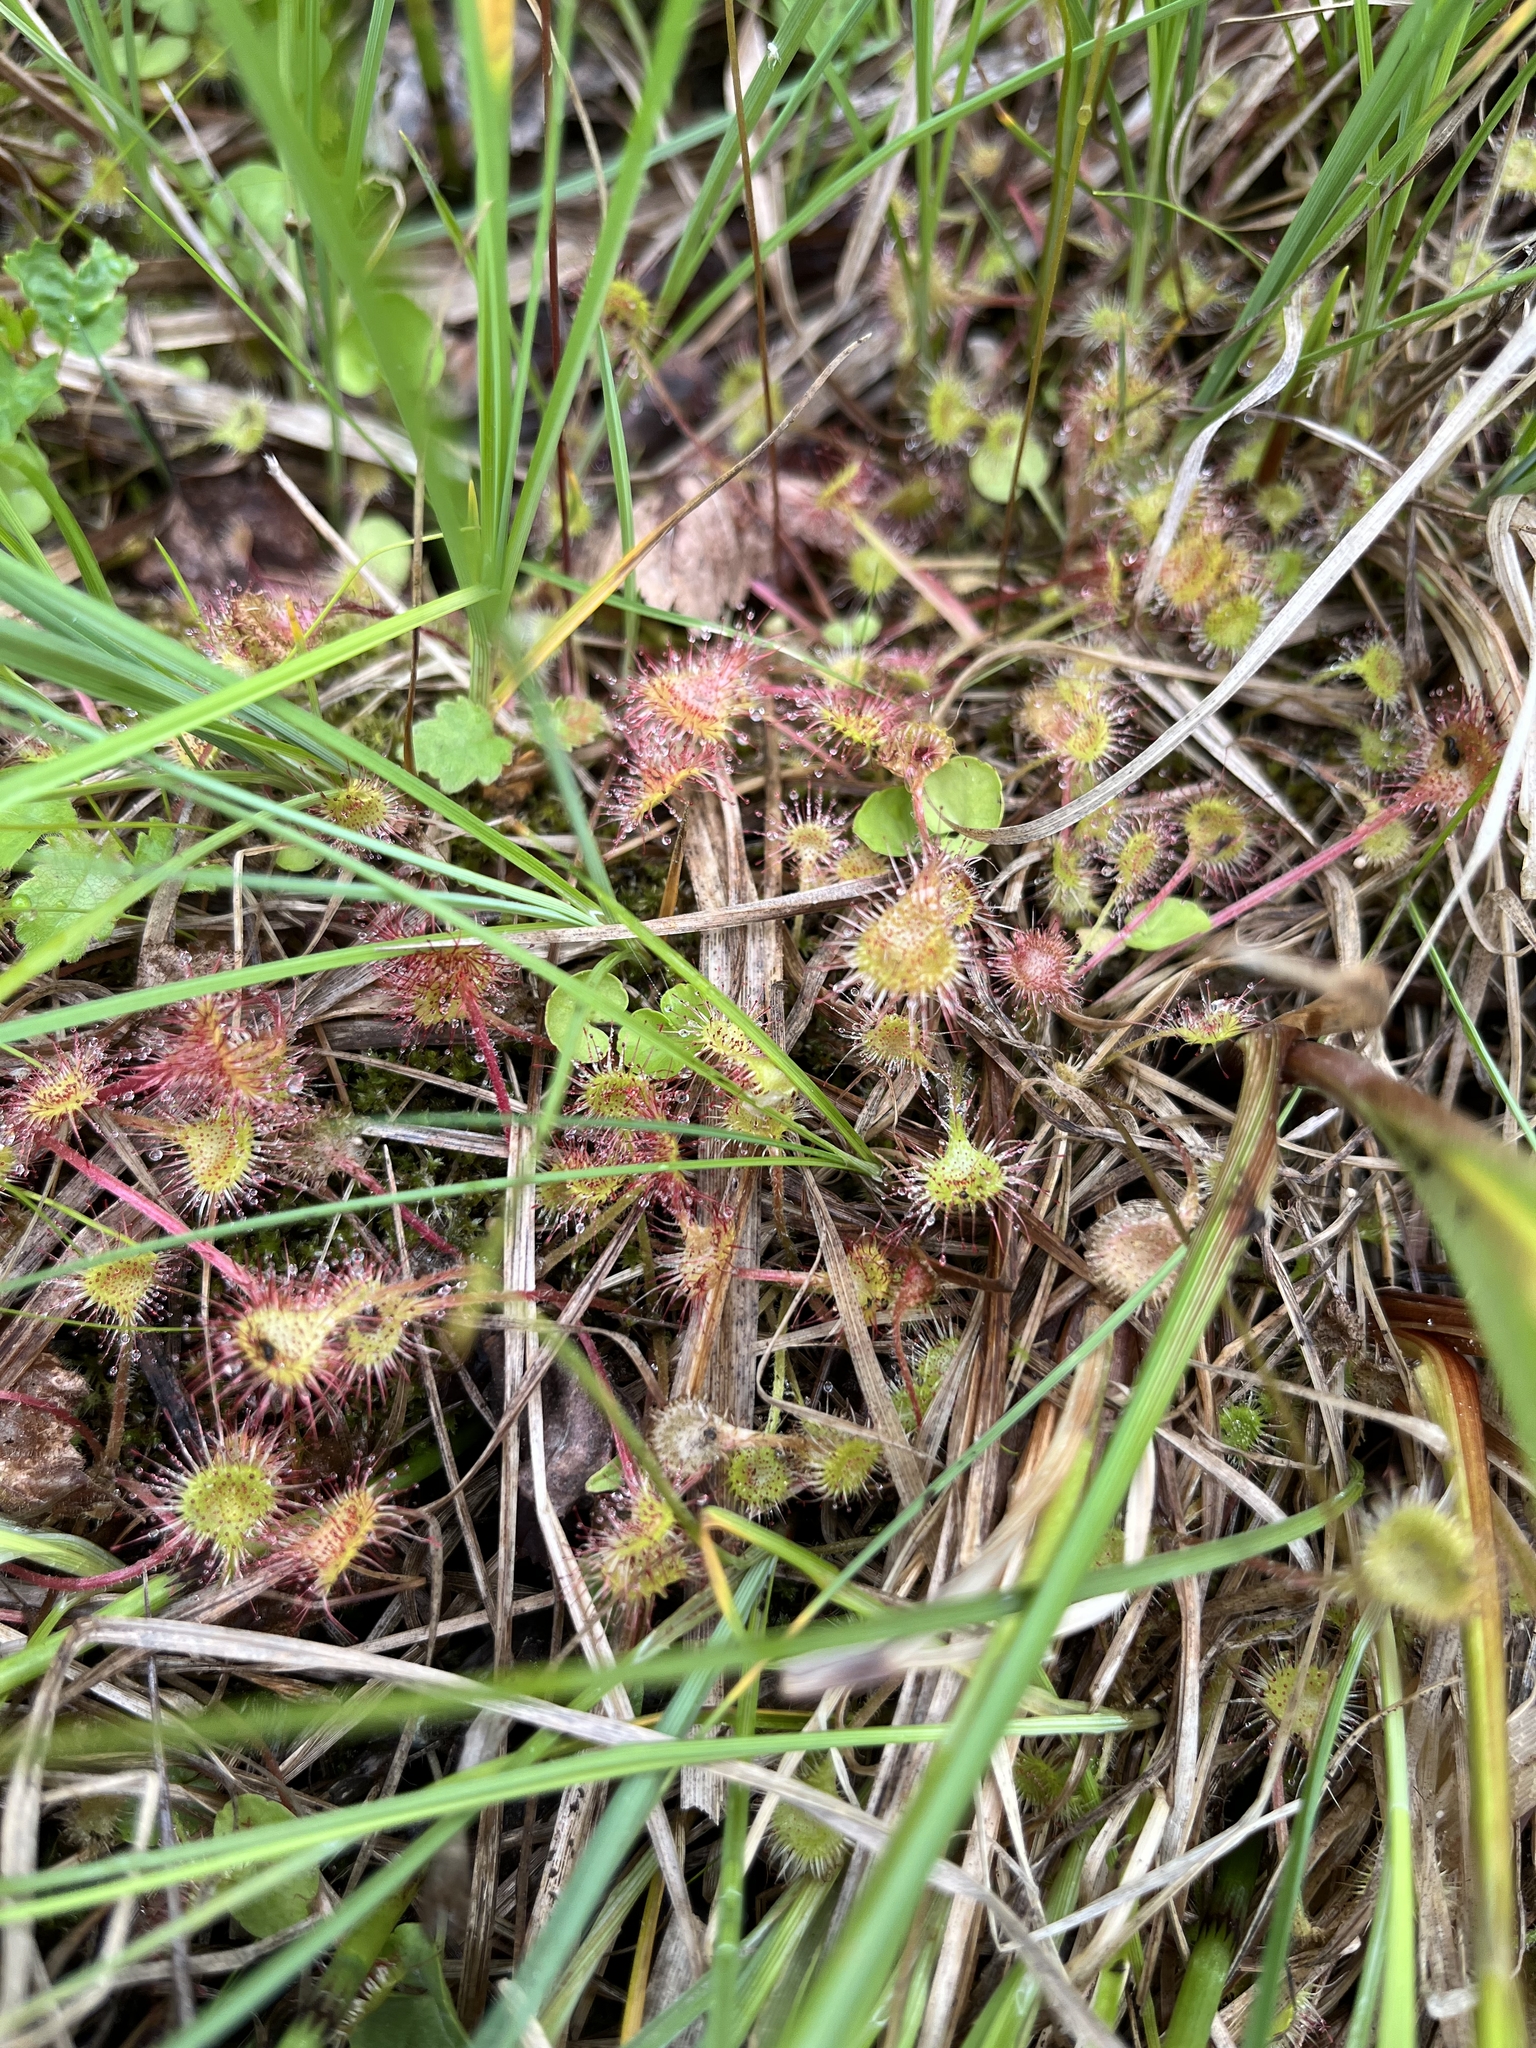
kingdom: Plantae
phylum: Tracheophyta
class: Magnoliopsida
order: Caryophyllales
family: Droseraceae
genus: Drosera
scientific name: Drosera rotundifolia
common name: Round-leaved sundew
